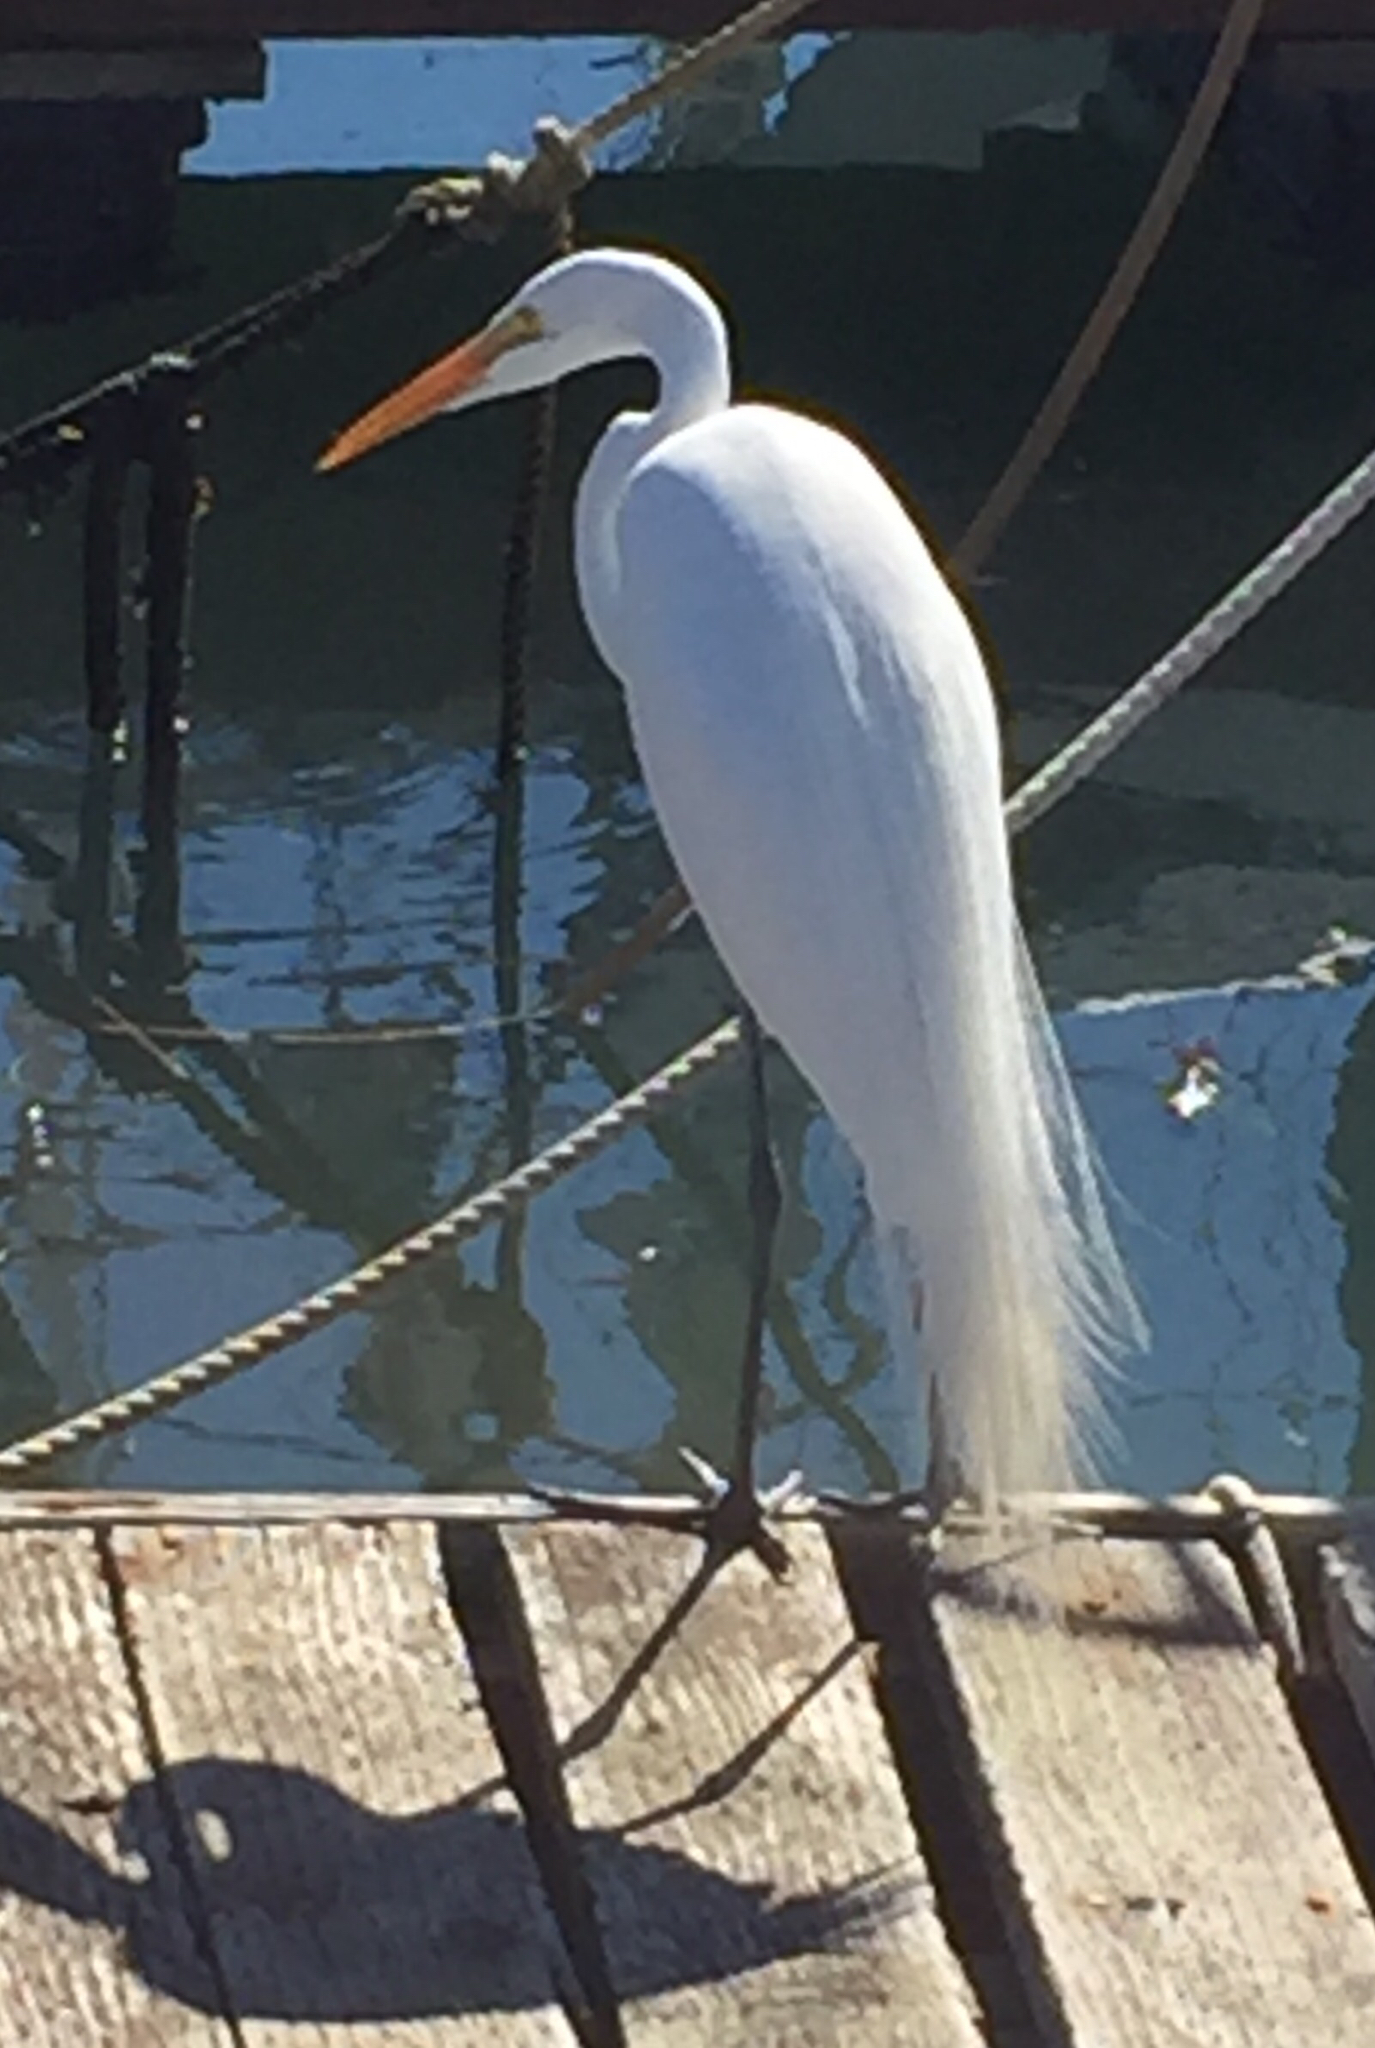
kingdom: Animalia
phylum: Chordata
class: Aves
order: Pelecaniformes
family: Ardeidae
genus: Ardea
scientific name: Ardea alba
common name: Great egret
